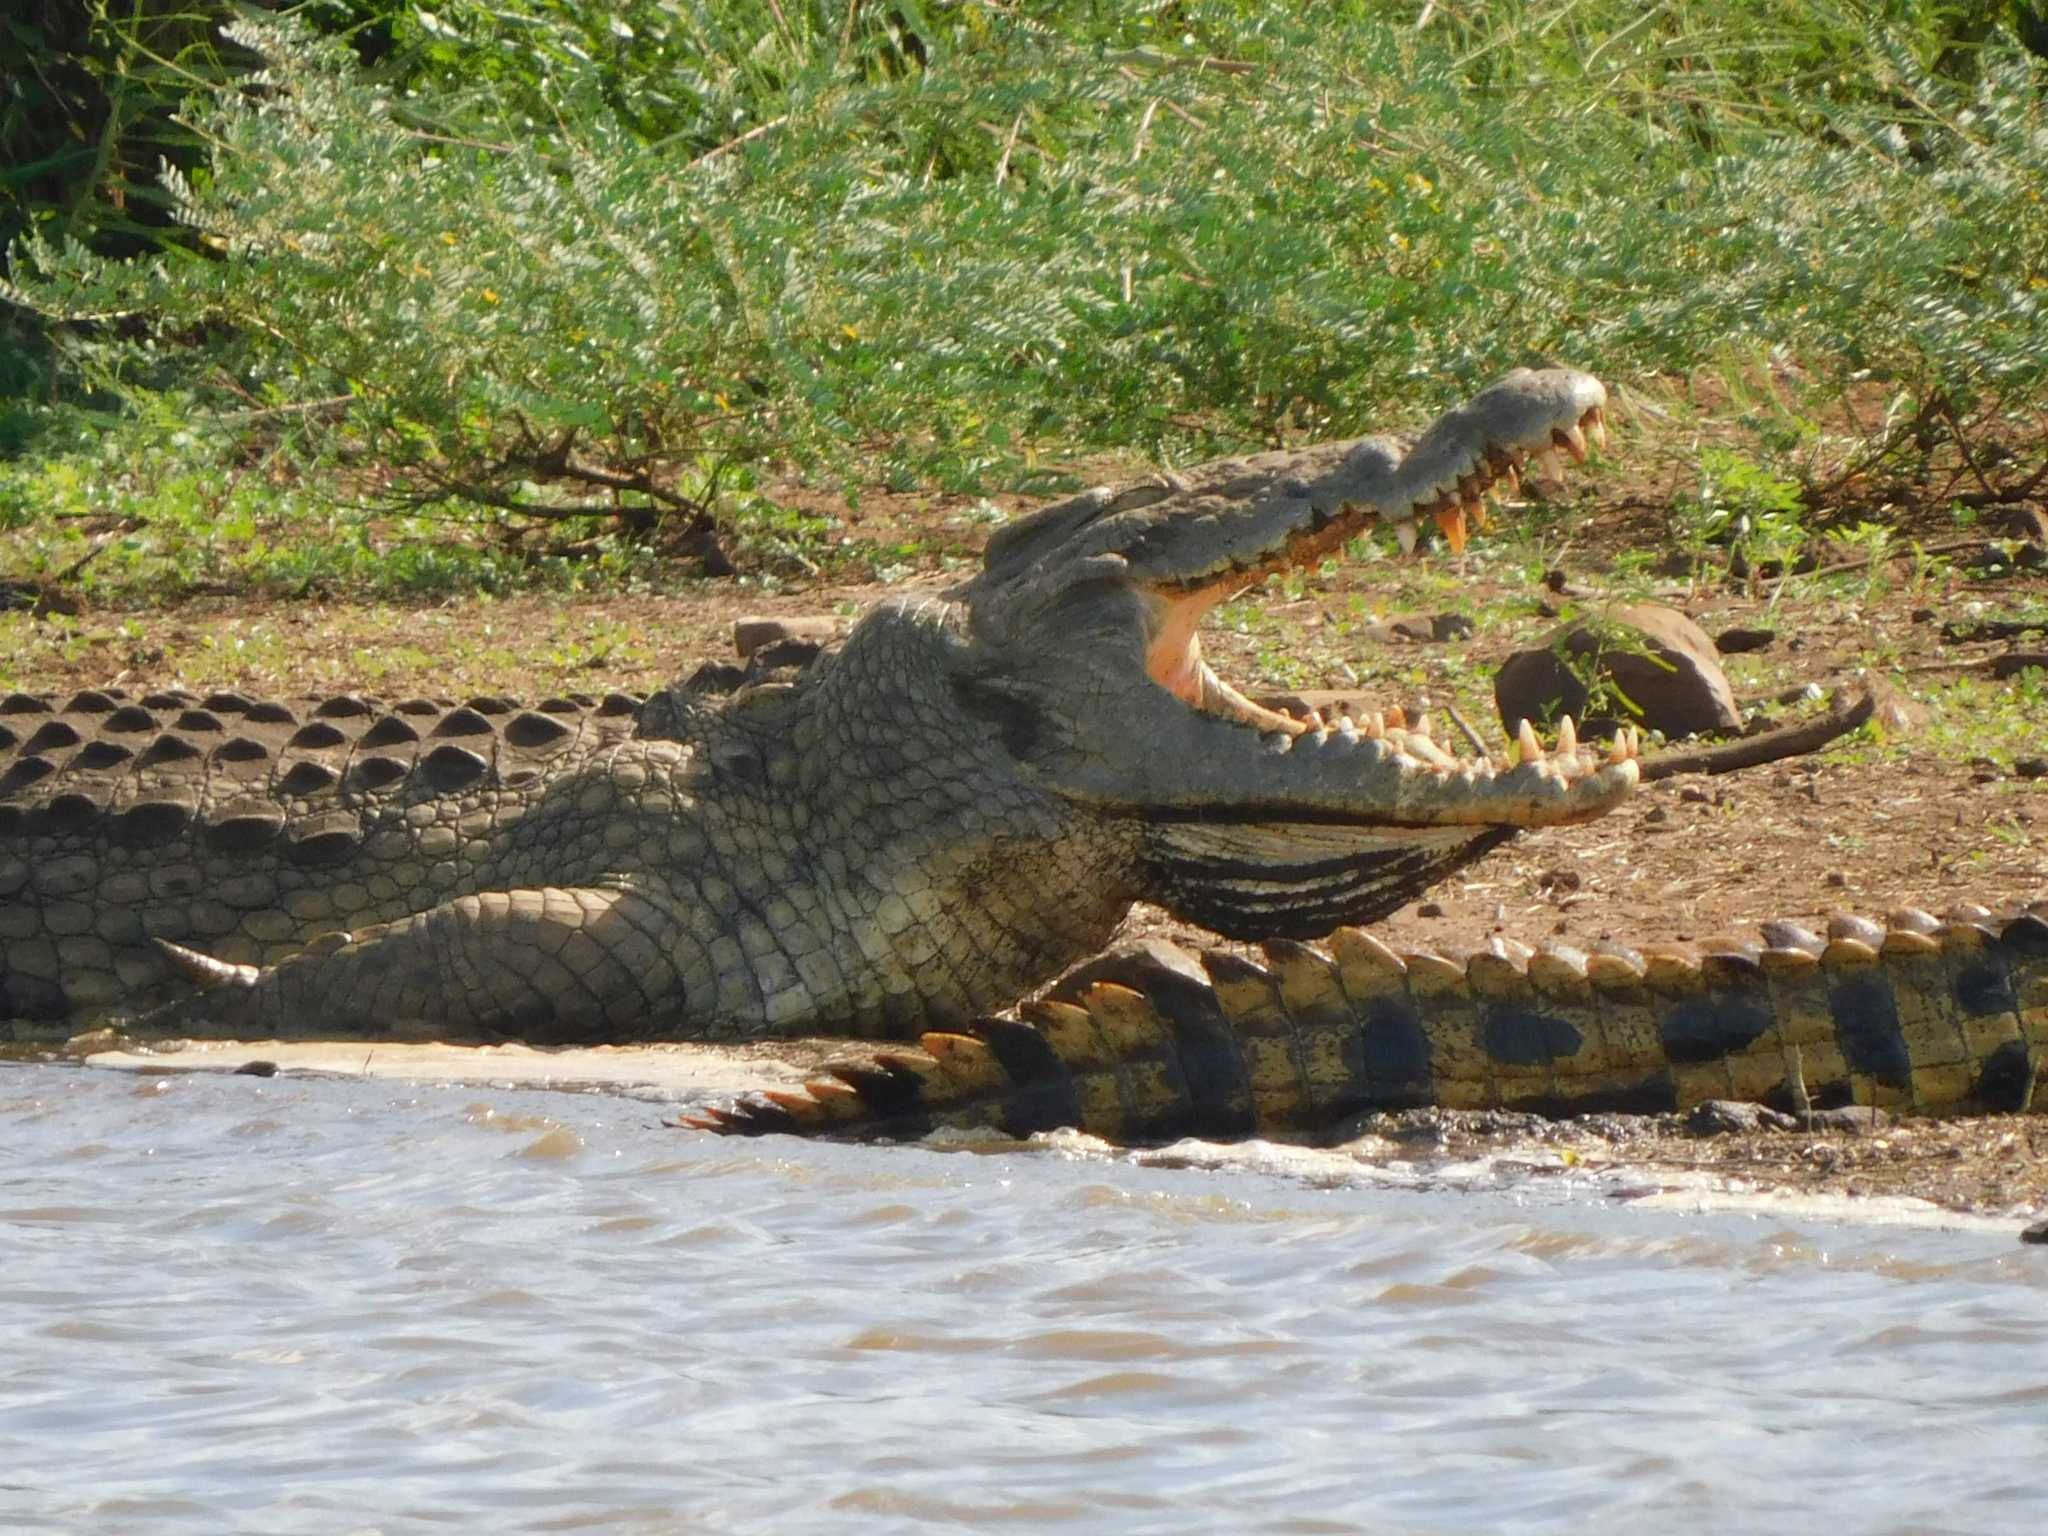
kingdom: Animalia
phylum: Chordata
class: Crocodylia
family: Crocodylidae
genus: Crocodylus
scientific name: Crocodylus niloticus
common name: Nile crocodile
